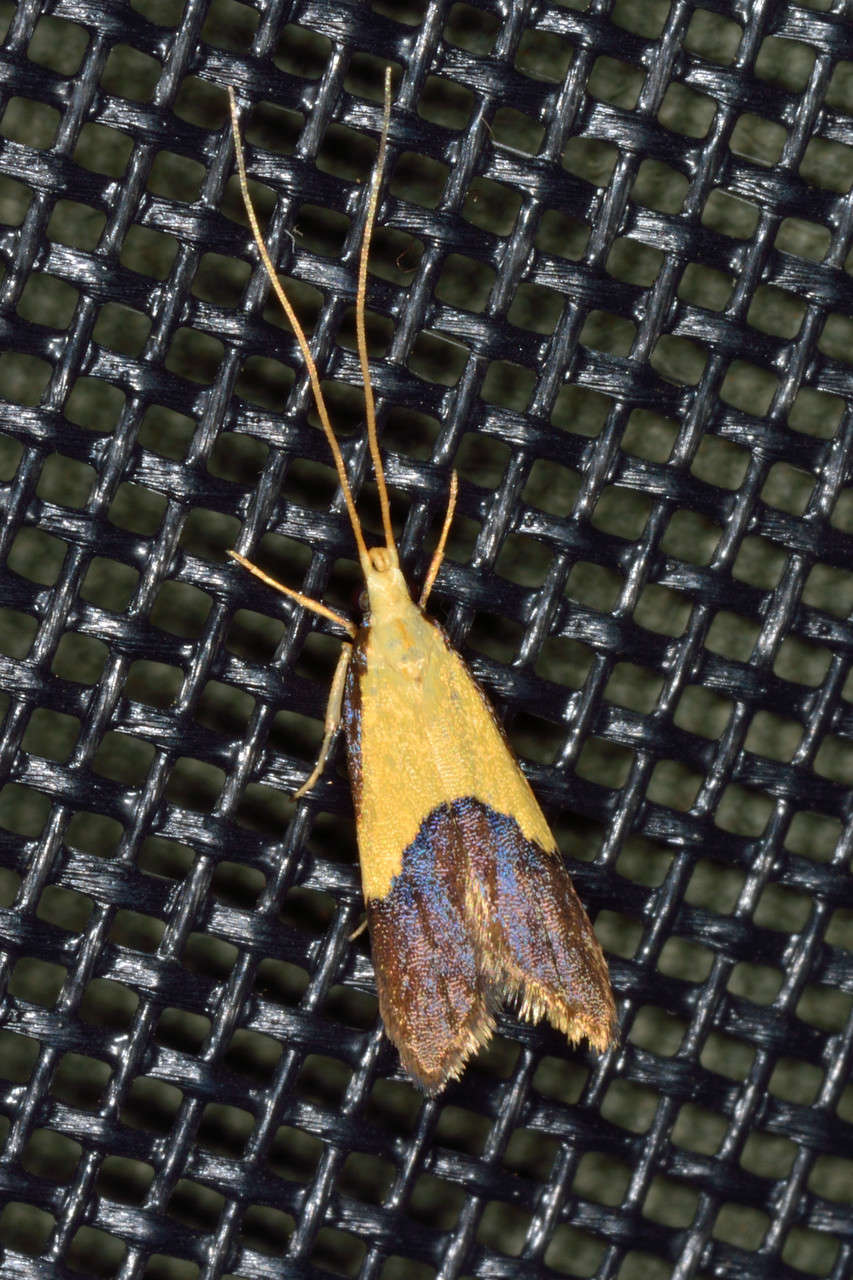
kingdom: Animalia
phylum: Arthropoda
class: Insecta
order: Lepidoptera
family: Lecithoceridae
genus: Crocanthes
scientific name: Crocanthes glycina
